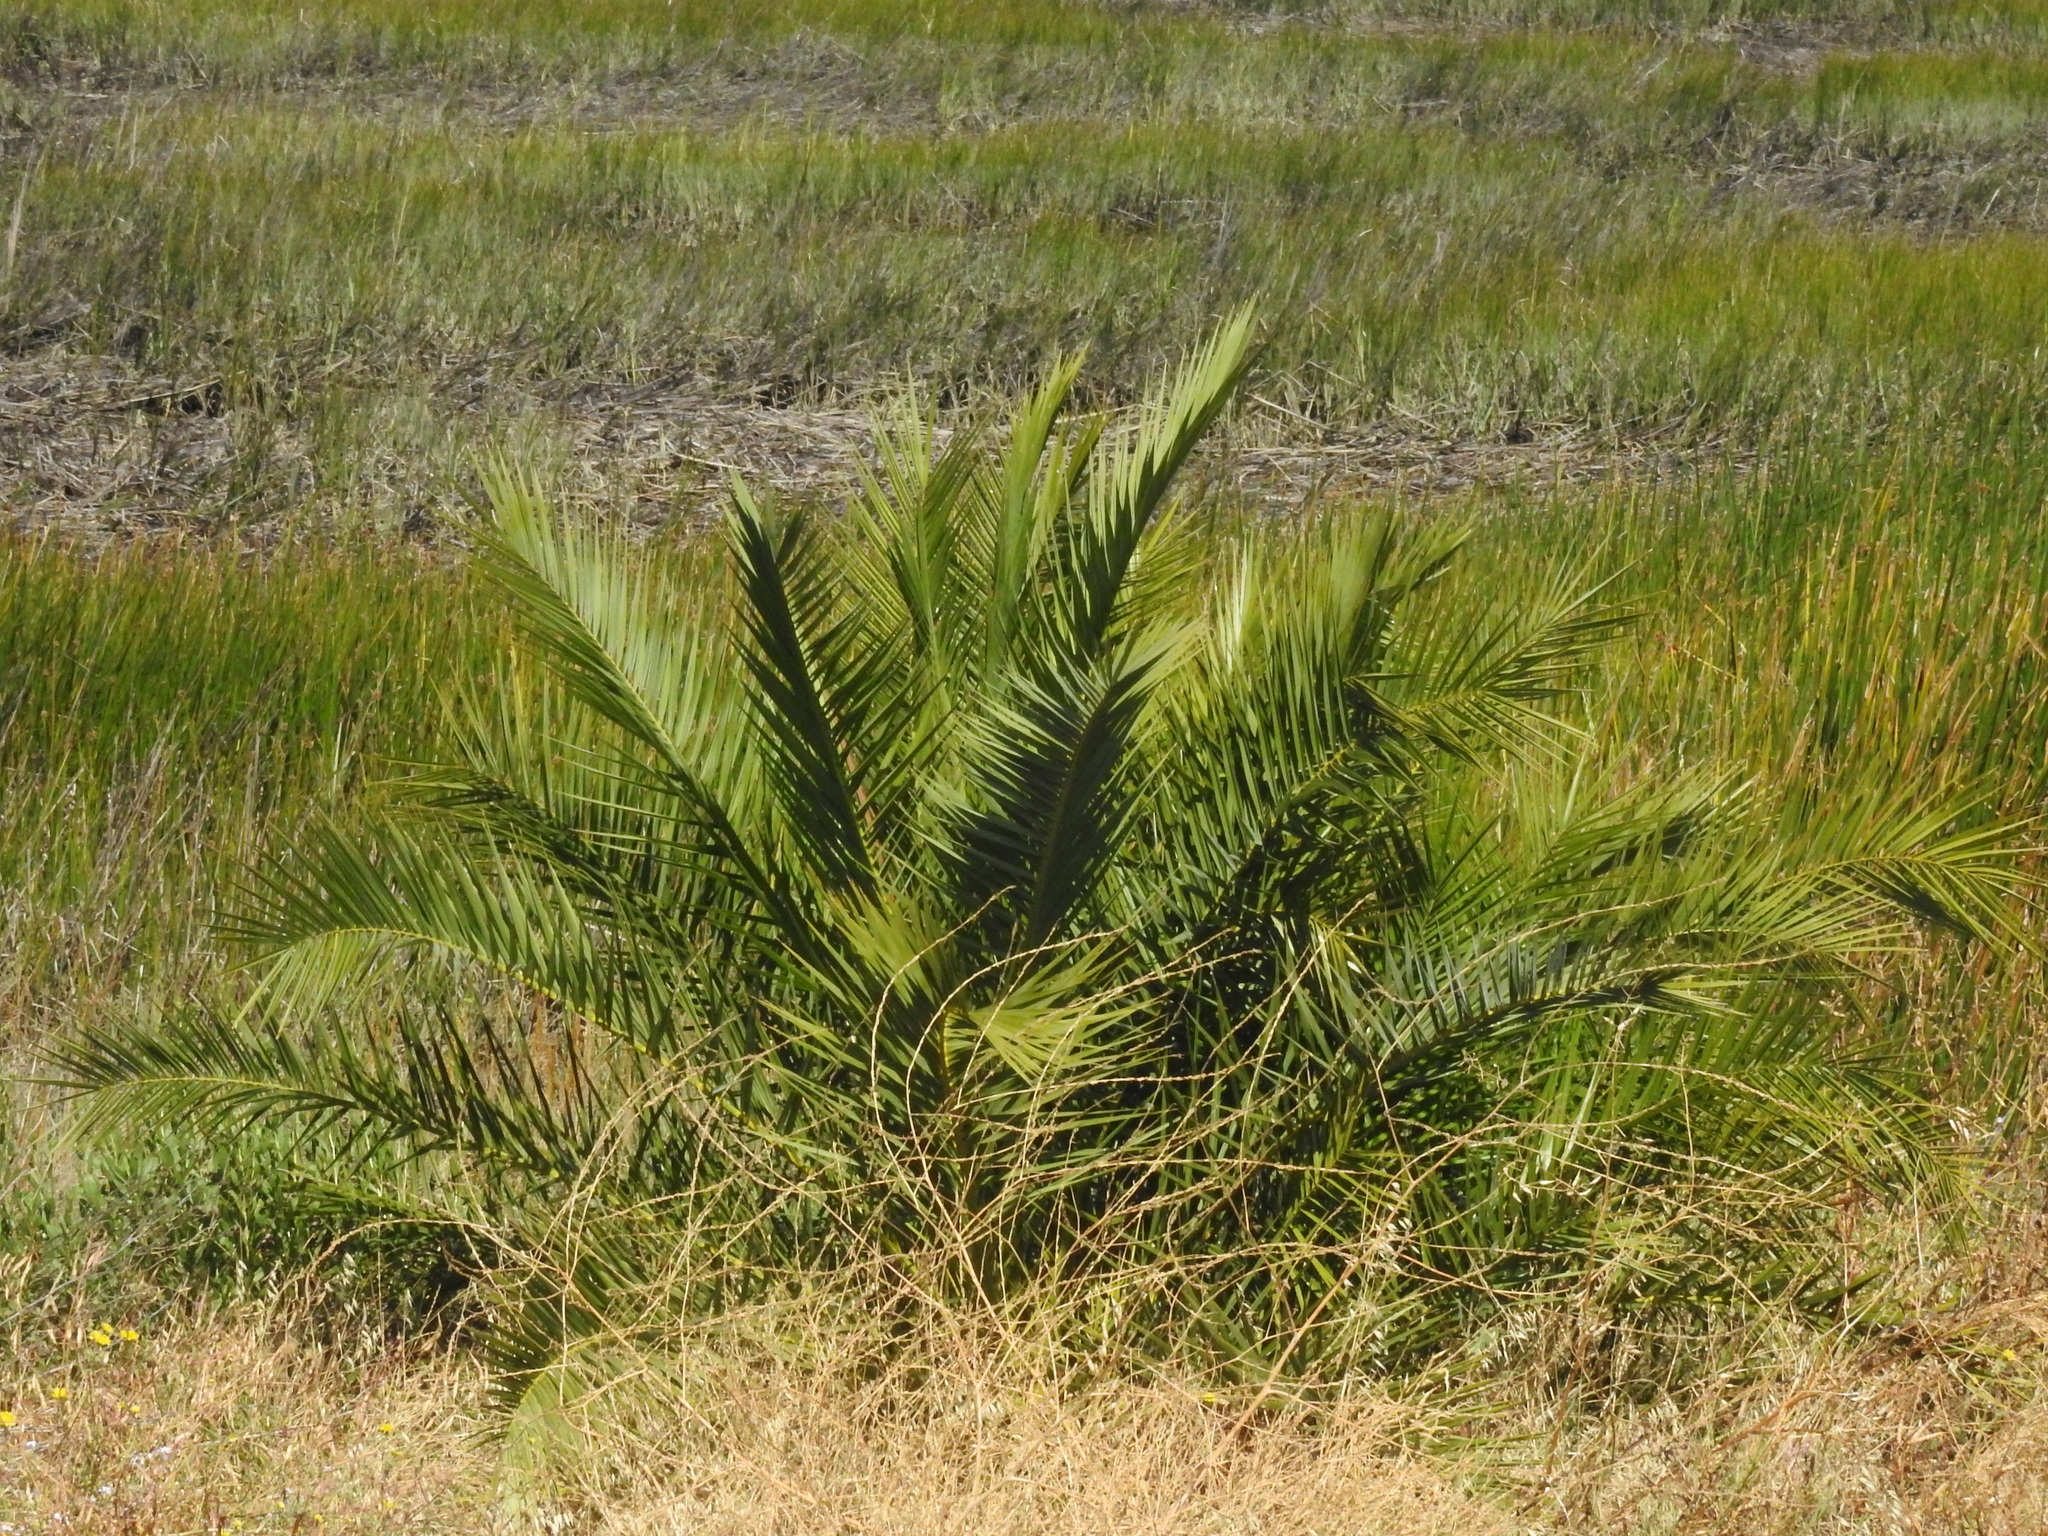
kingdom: Plantae
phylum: Tracheophyta
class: Liliopsida
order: Arecales
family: Arecaceae
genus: Phoenix
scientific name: Phoenix canariensis
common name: Canary island date palm
